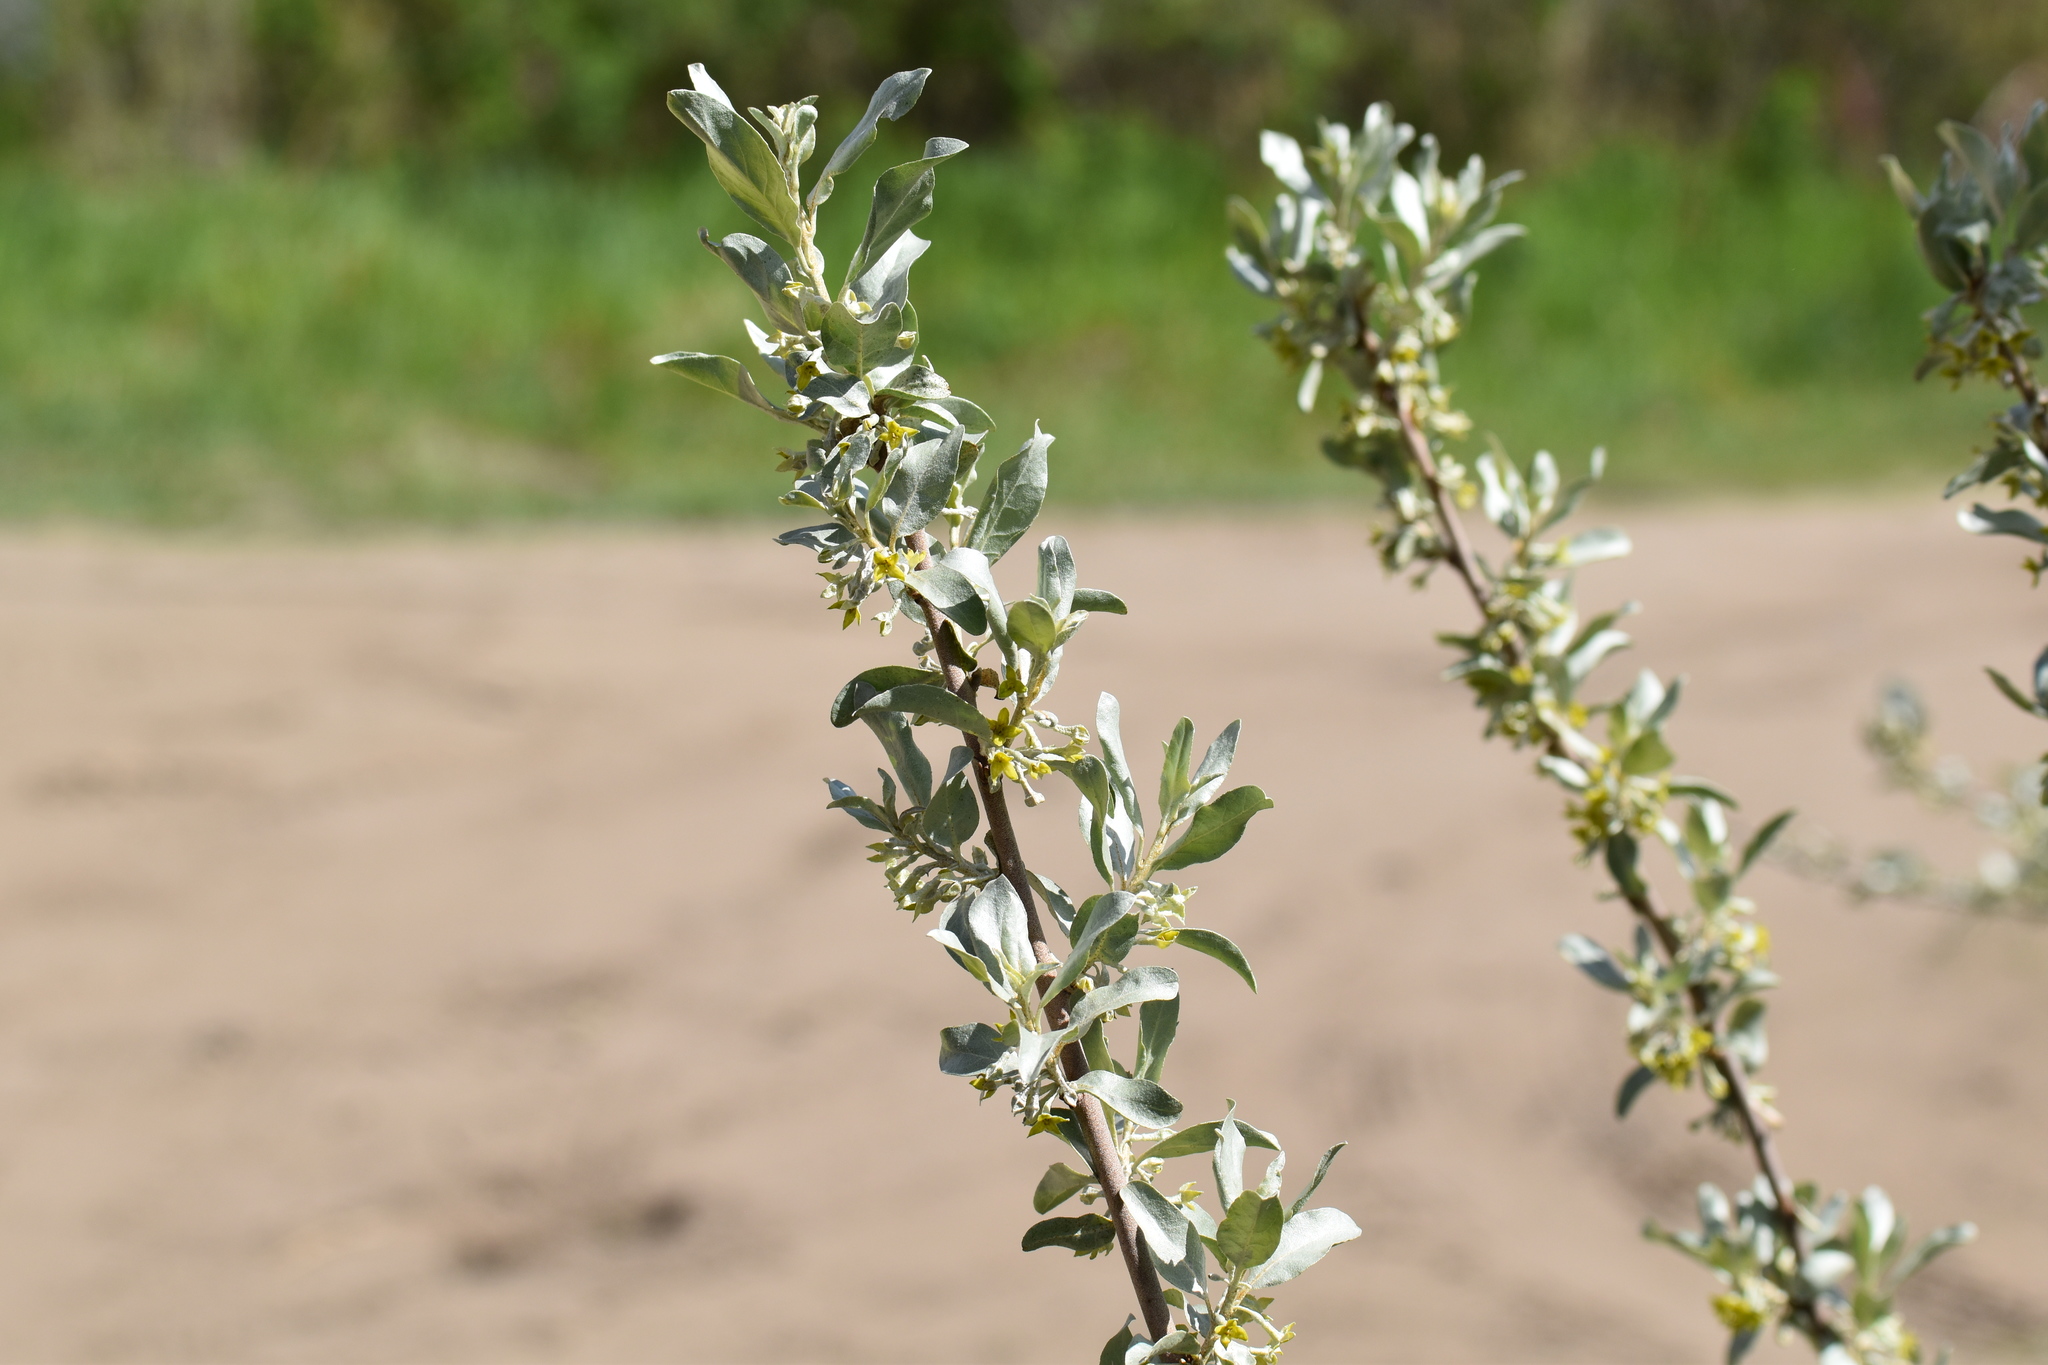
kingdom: Plantae
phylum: Tracheophyta
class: Magnoliopsida
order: Rosales
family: Elaeagnaceae
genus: Elaeagnus
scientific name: Elaeagnus commutata
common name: Silverberry
